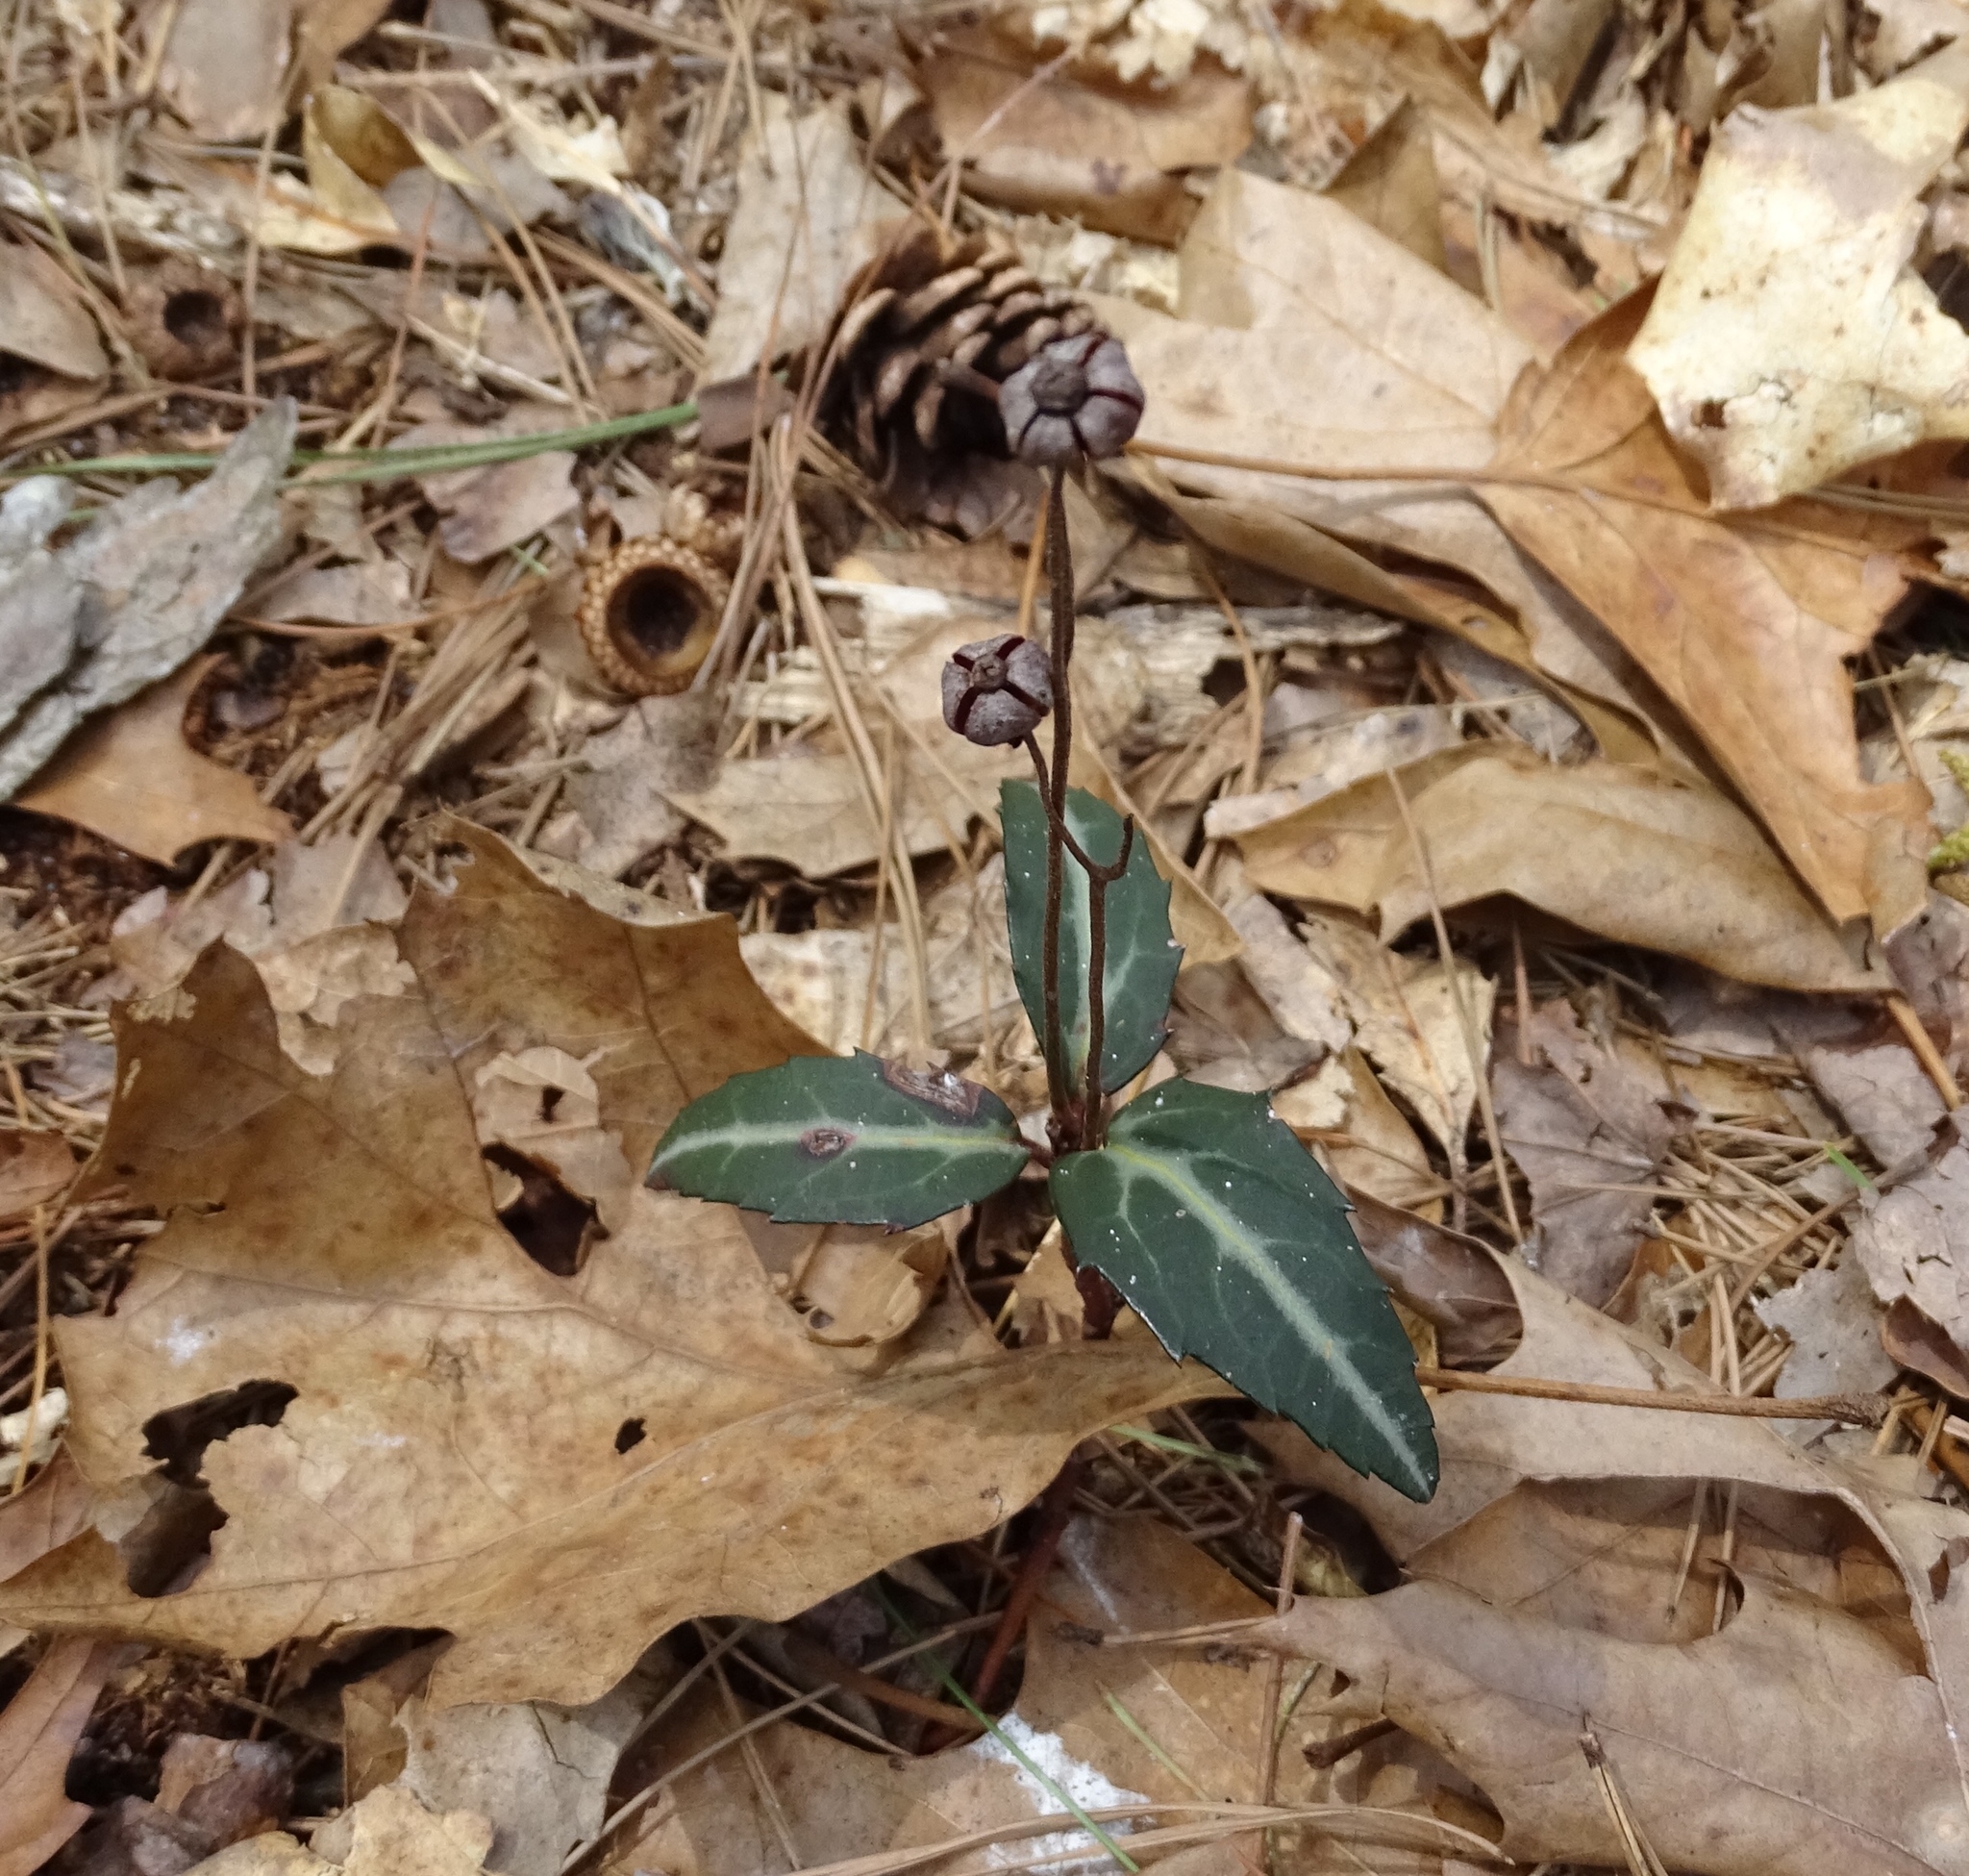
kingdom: Plantae
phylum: Tracheophyta
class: Magnoliopsida
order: Ericales
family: Ericaceae
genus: Chimaphila
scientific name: Chimaphila maculata
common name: Spotted pipsissewa
